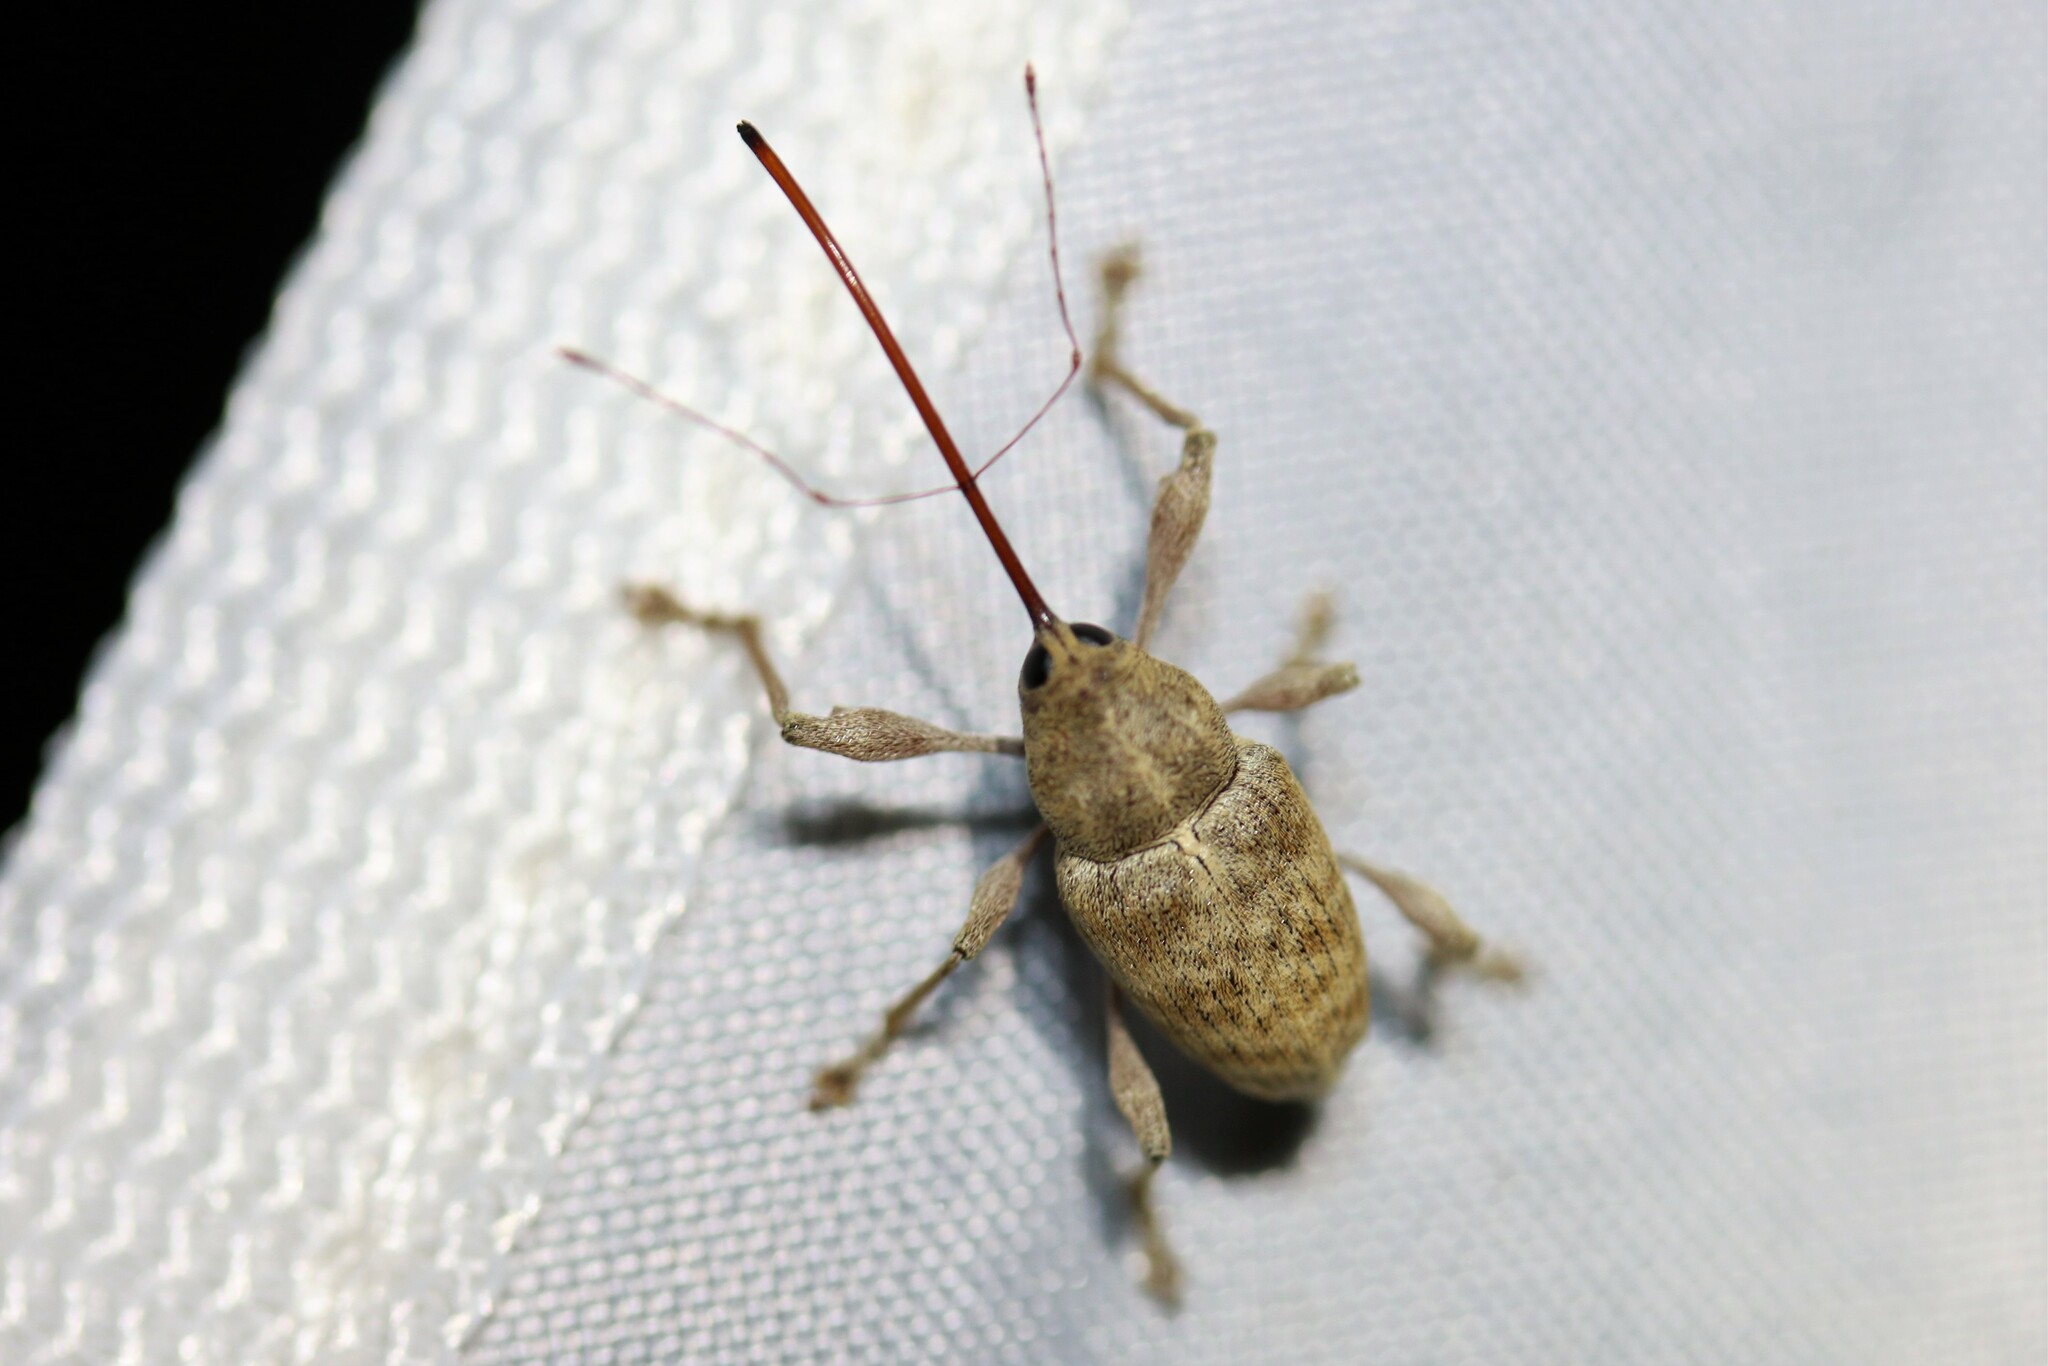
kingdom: Animalia
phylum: Arthropoda
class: Insecta
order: Coleoptera
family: Curculionidae
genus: Curculio
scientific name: Curculio elephas
